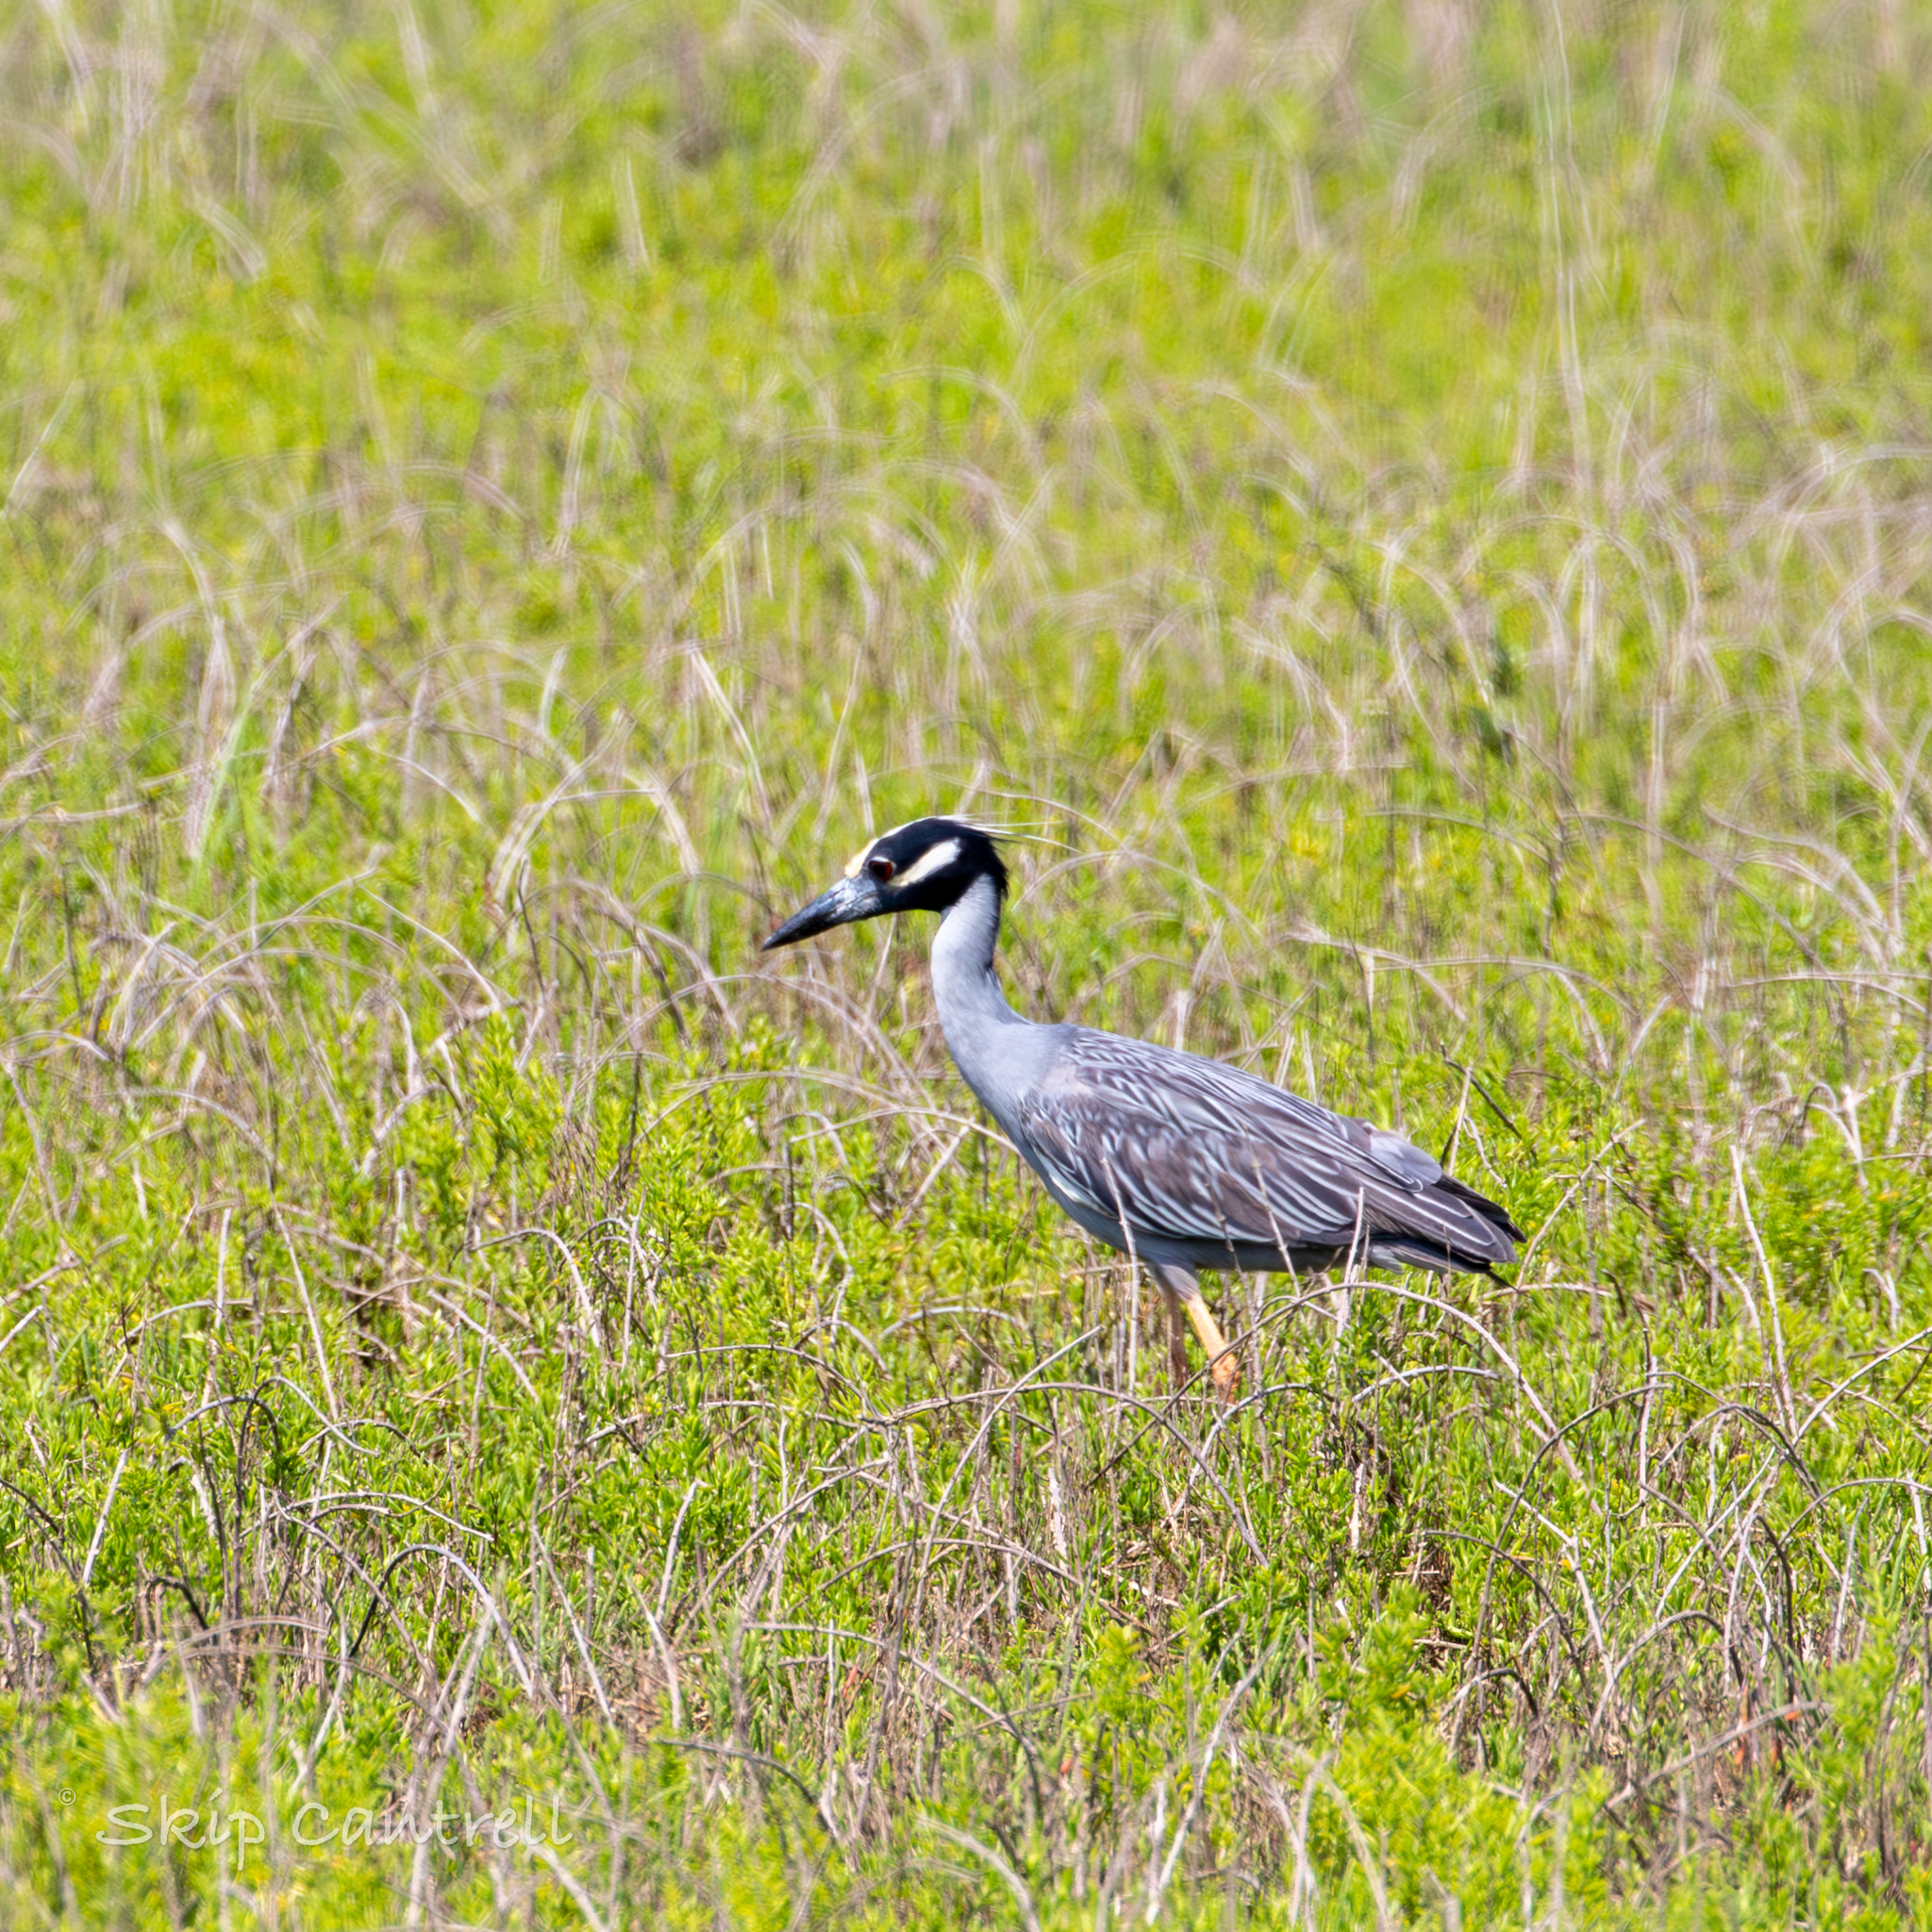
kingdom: Animalia
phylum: Chordata
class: Aves
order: Pelecaniformes
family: Ardeidae
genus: Nyctanassa
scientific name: Nyctanassa violacea
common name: Yellow-crowned night heron
